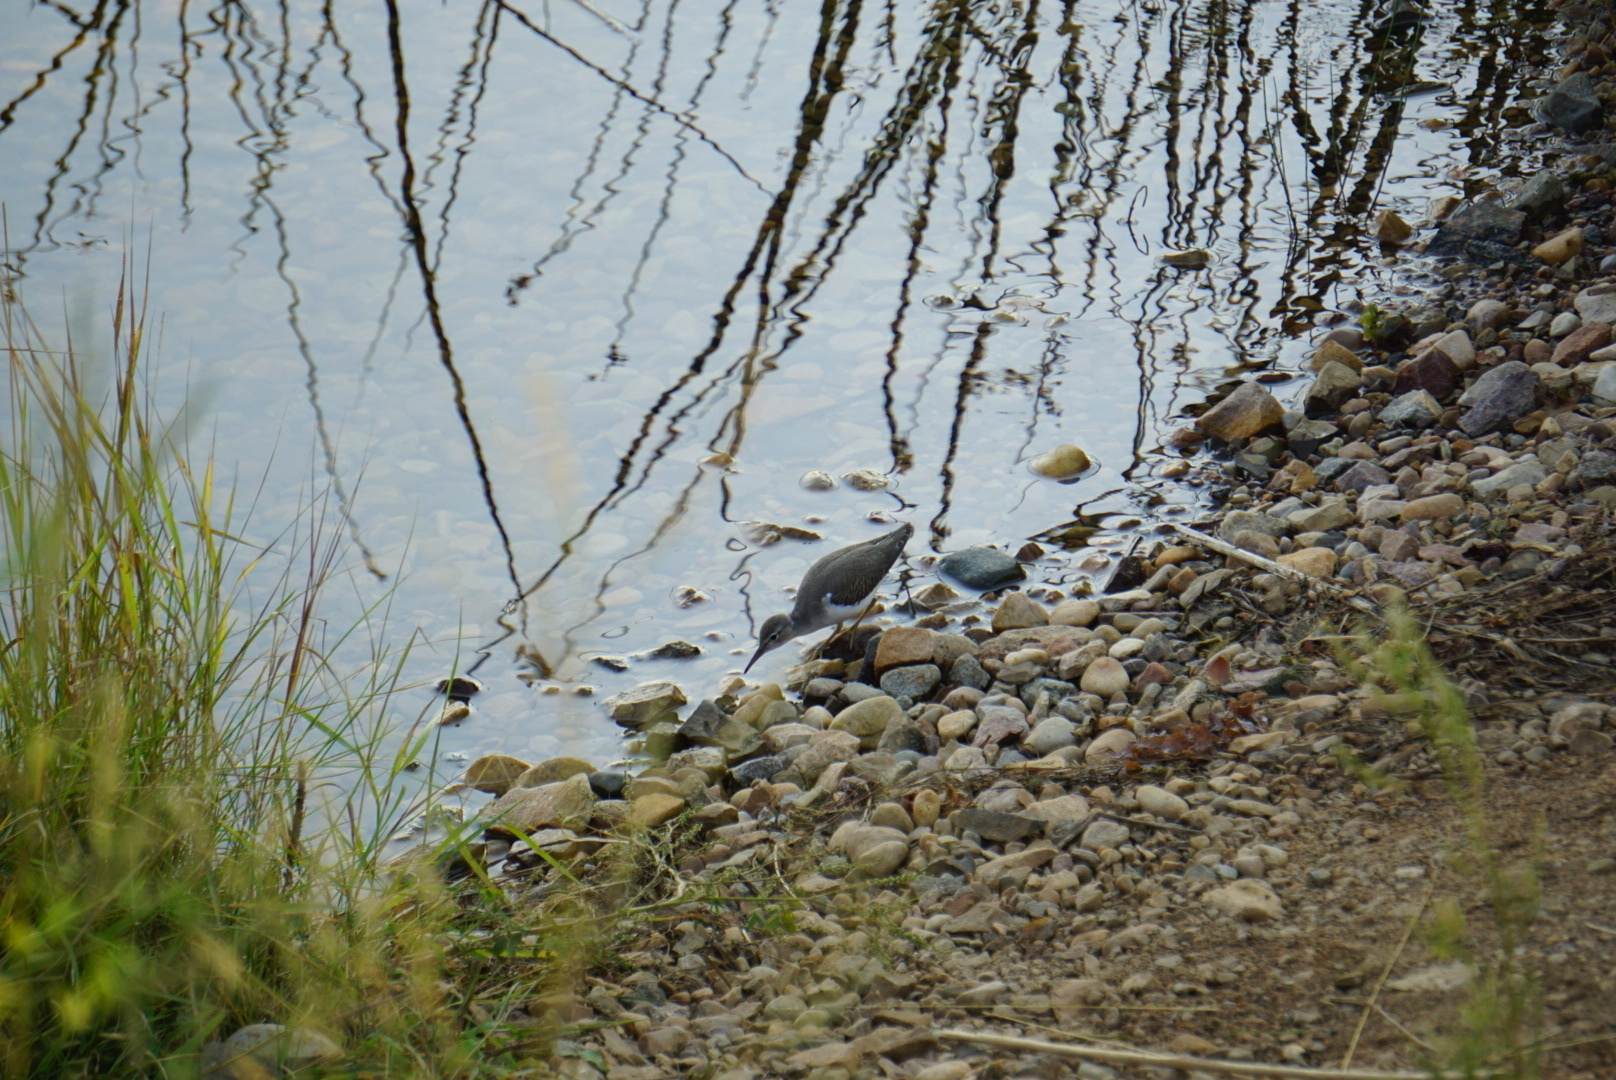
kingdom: Animalia
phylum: Chordata
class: Aves
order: Charadriiformes
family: Scolopacidae
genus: Actitis
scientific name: Actitis macularius
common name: Spotted sandpiper
